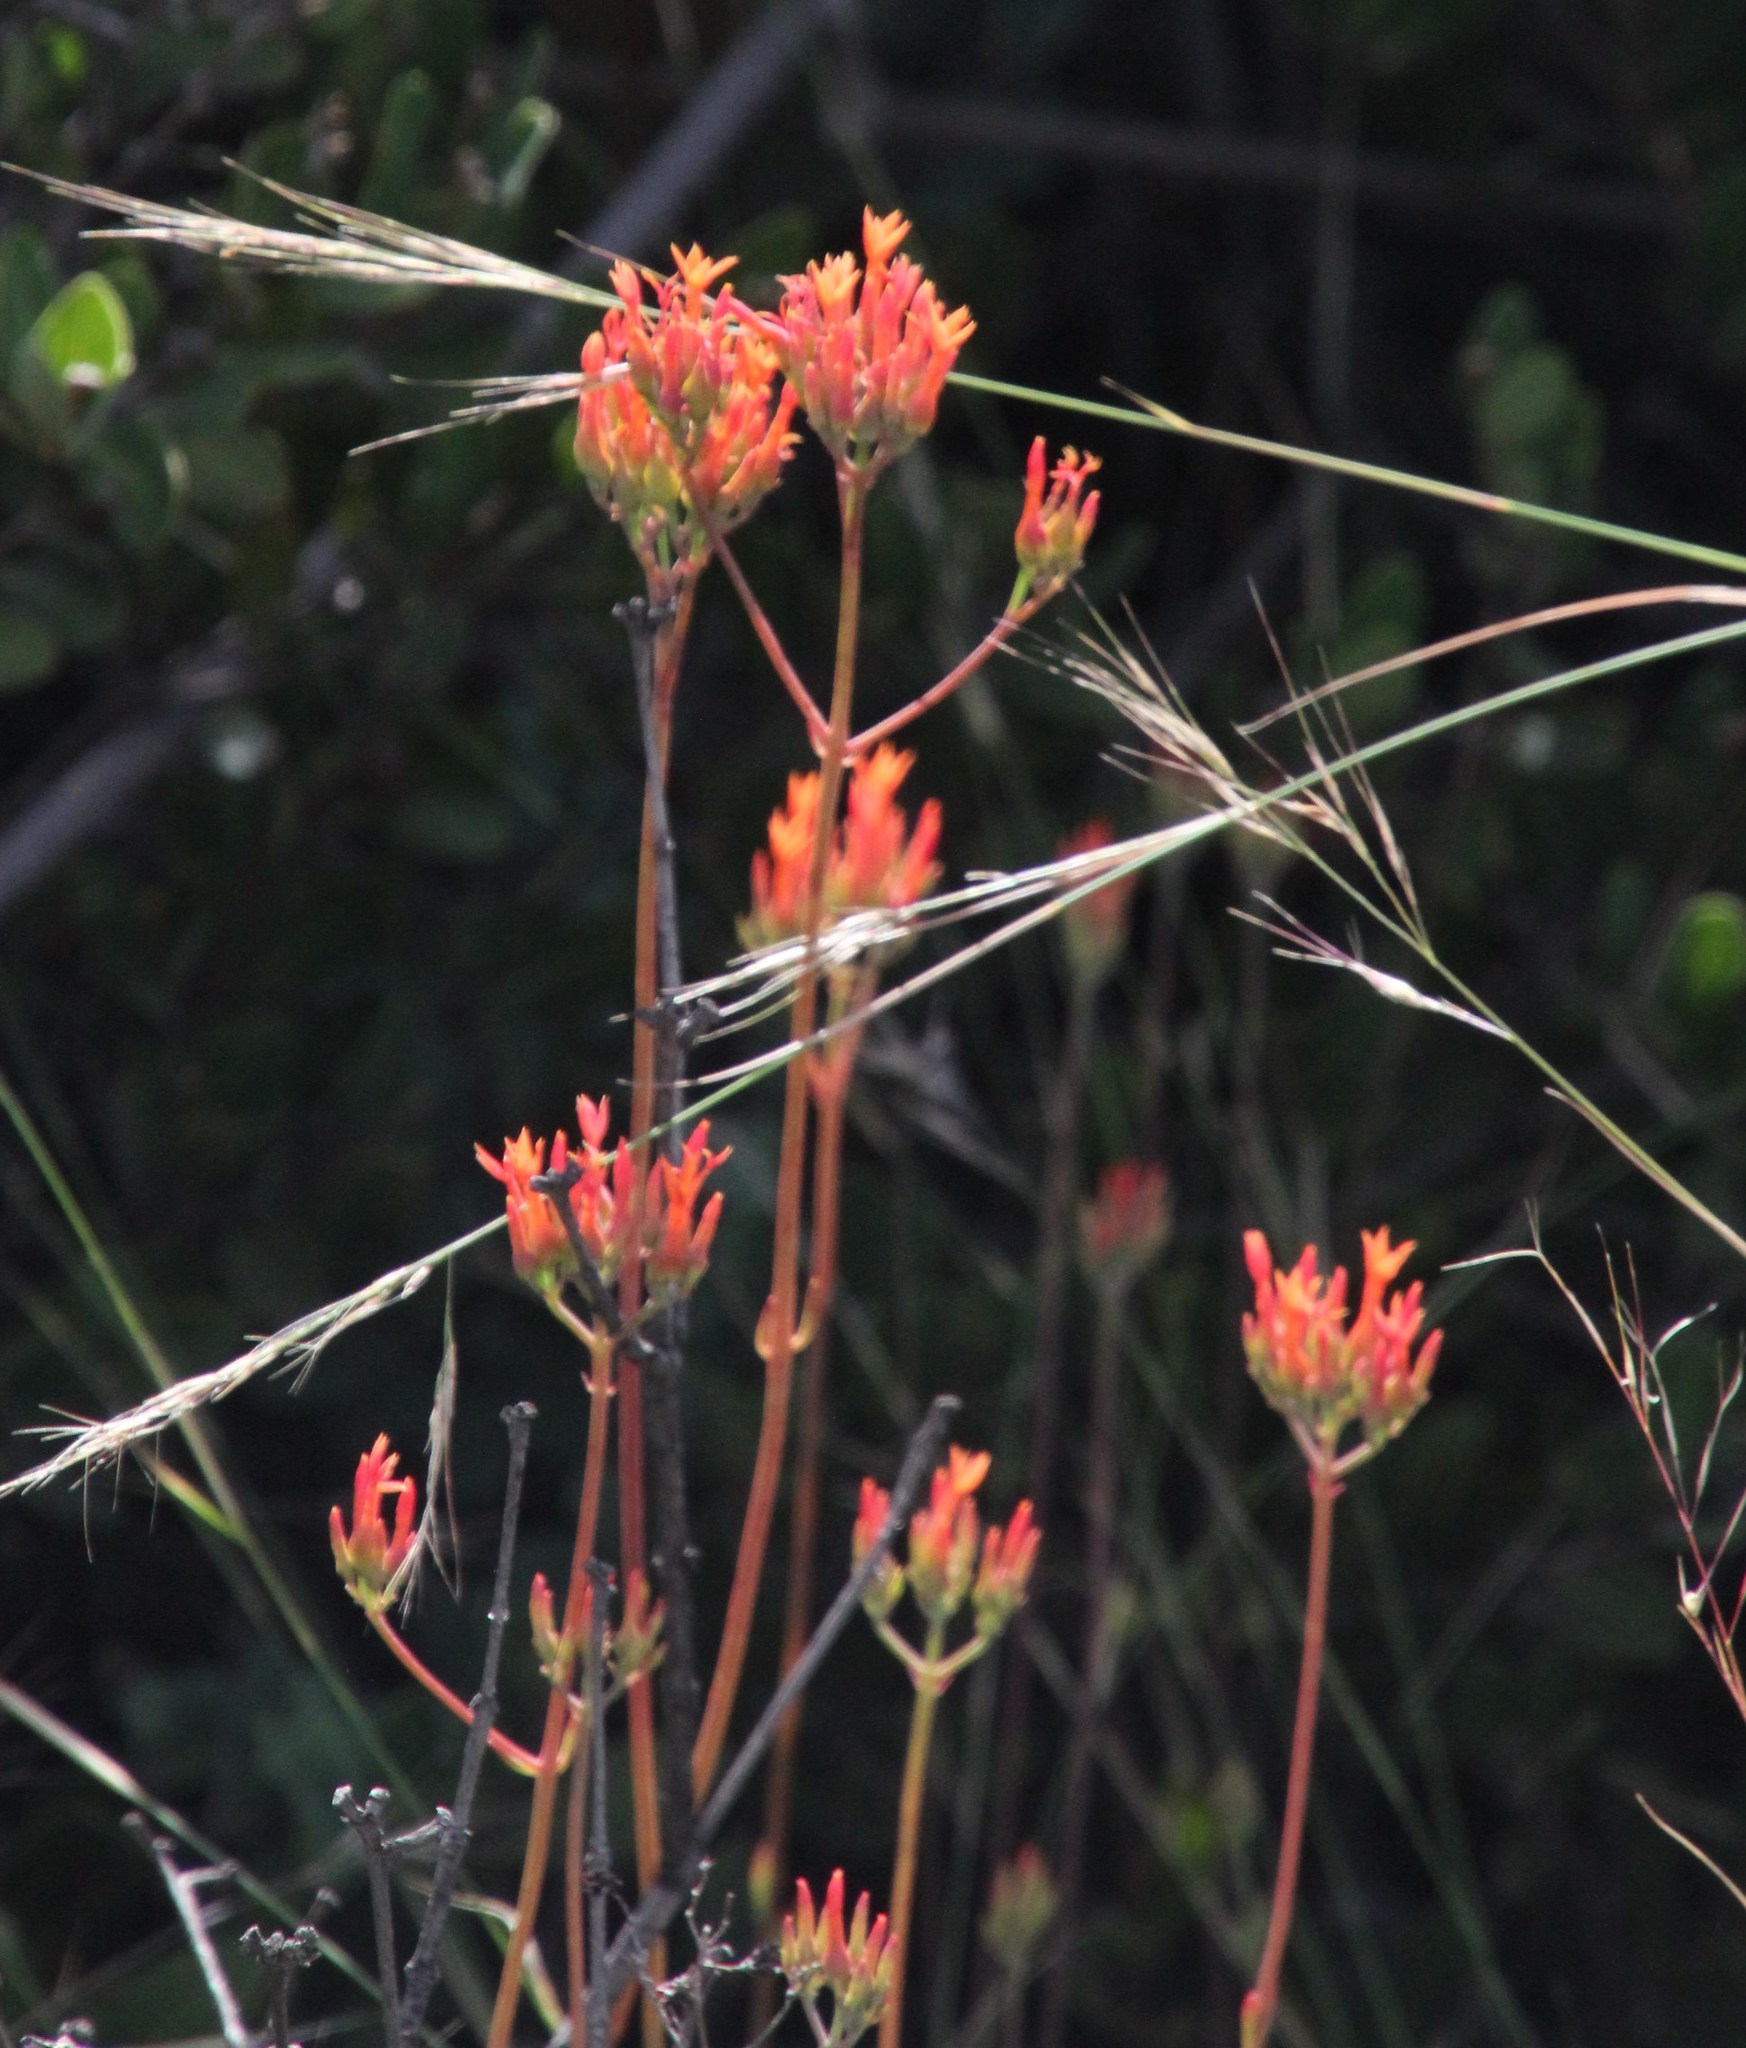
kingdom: Plantae
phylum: Tracheophyta
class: Magnoliopsida
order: Saxifragales
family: Crassulaceae
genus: Kalanchoe
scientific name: Kalanchoe rotundifolia
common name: Common kalanchoe
